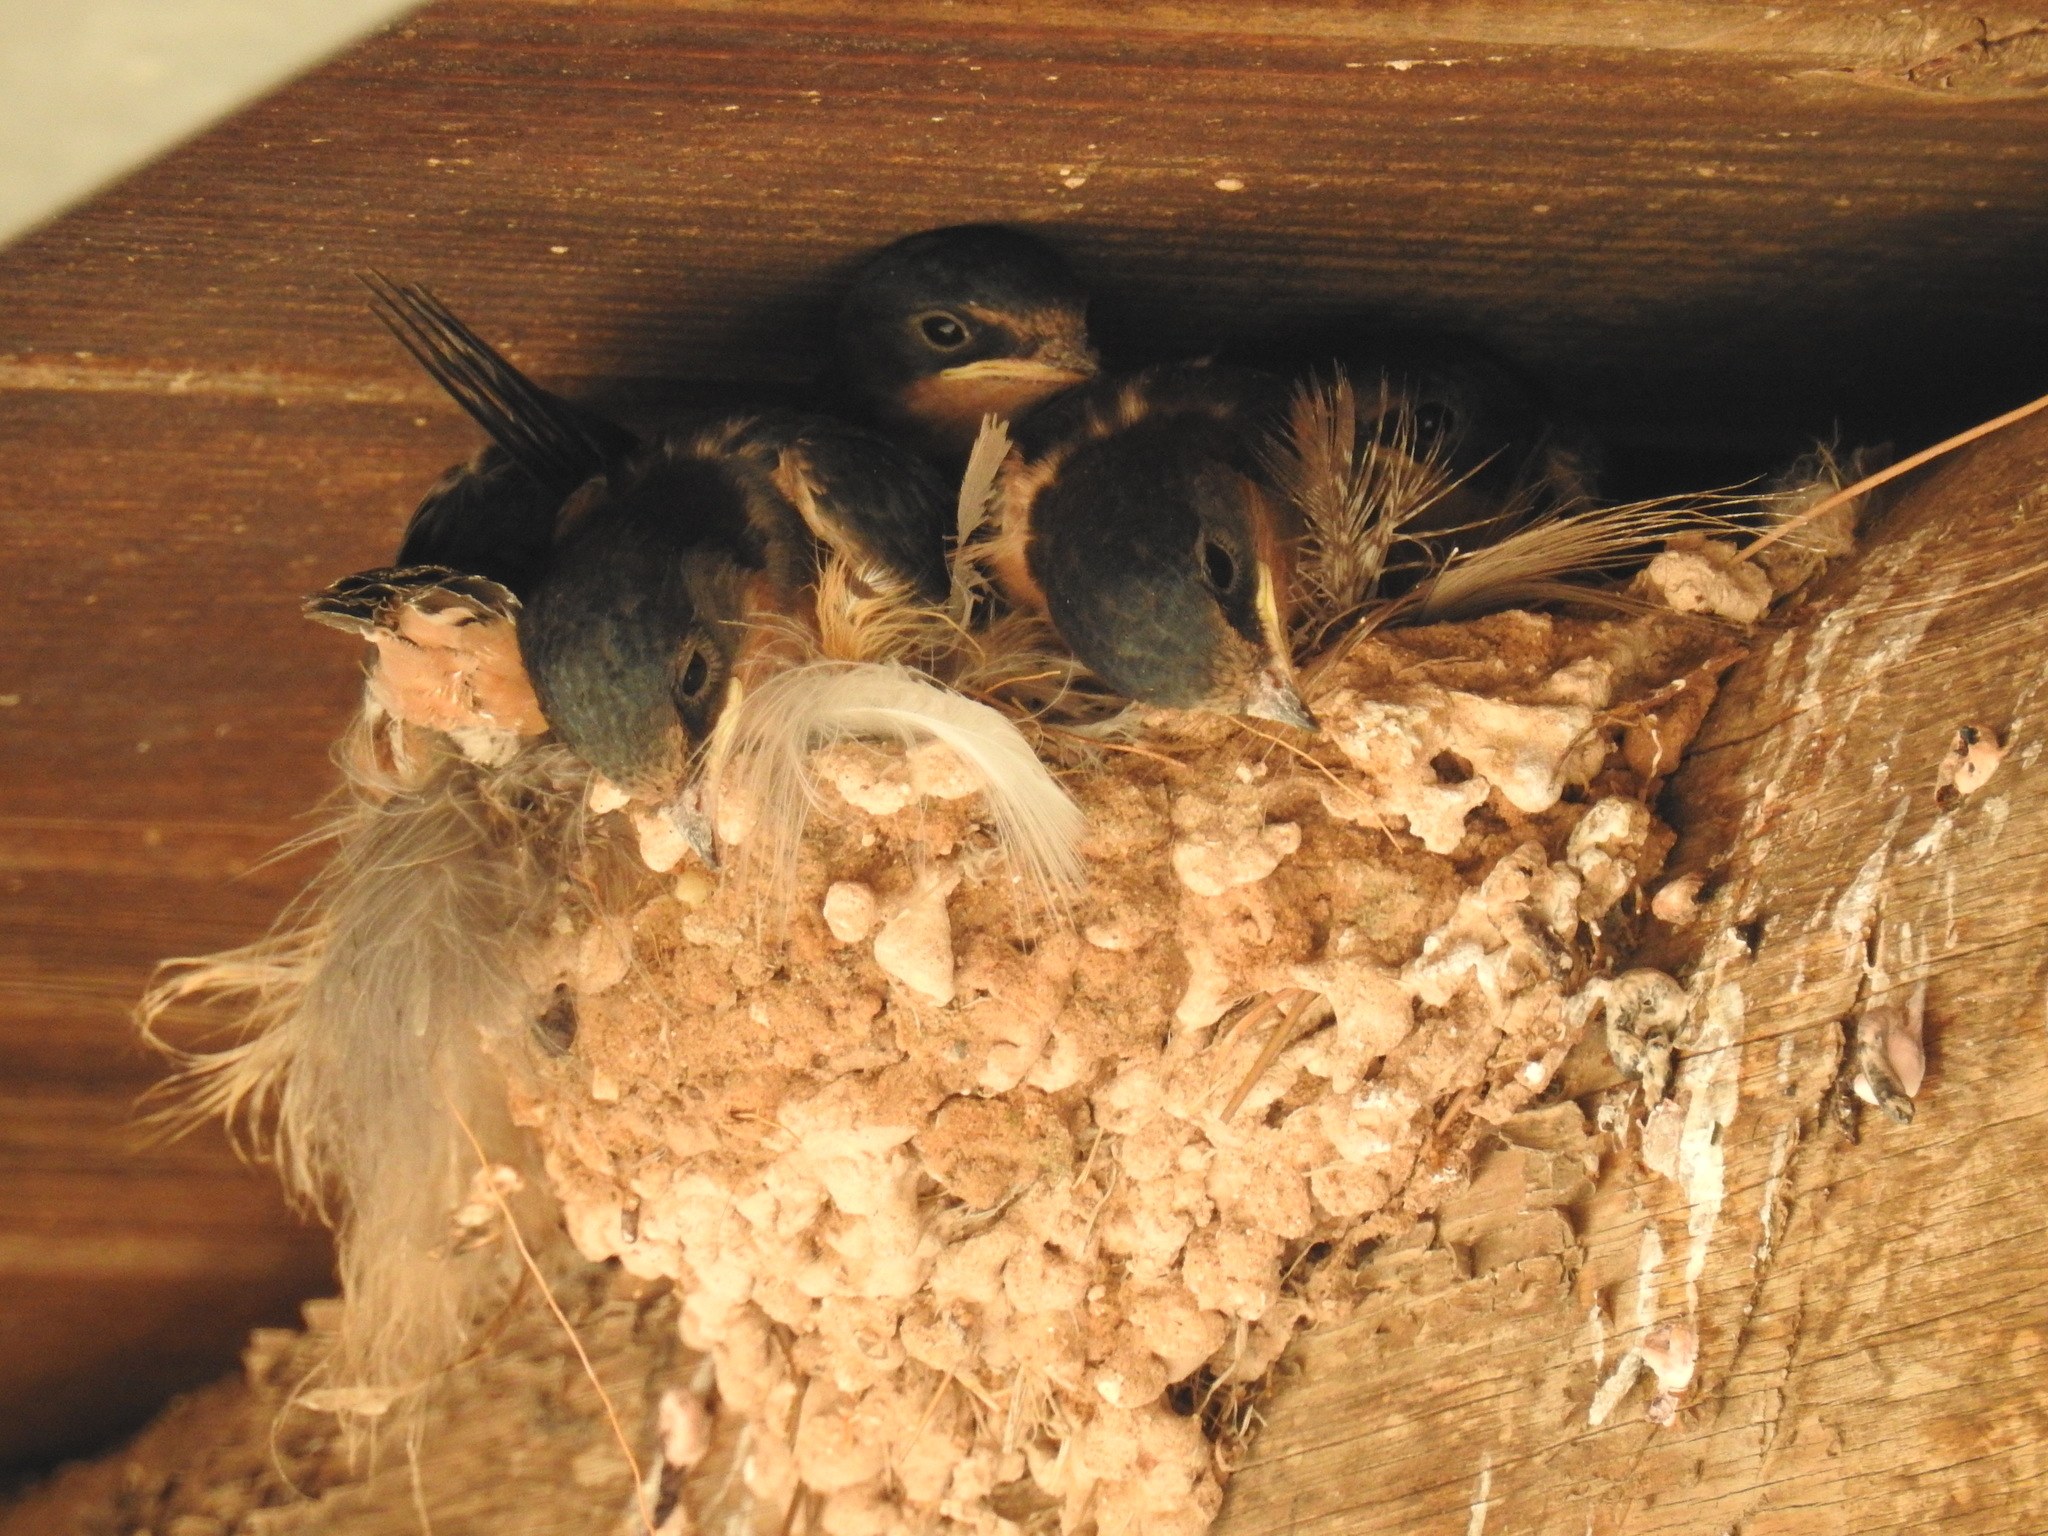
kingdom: Animalia
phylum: Chordata
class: Aves
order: Passeriformes
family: Hirundinidae
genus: Hirundo
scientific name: Hirundo rustica
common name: Barn swallow
